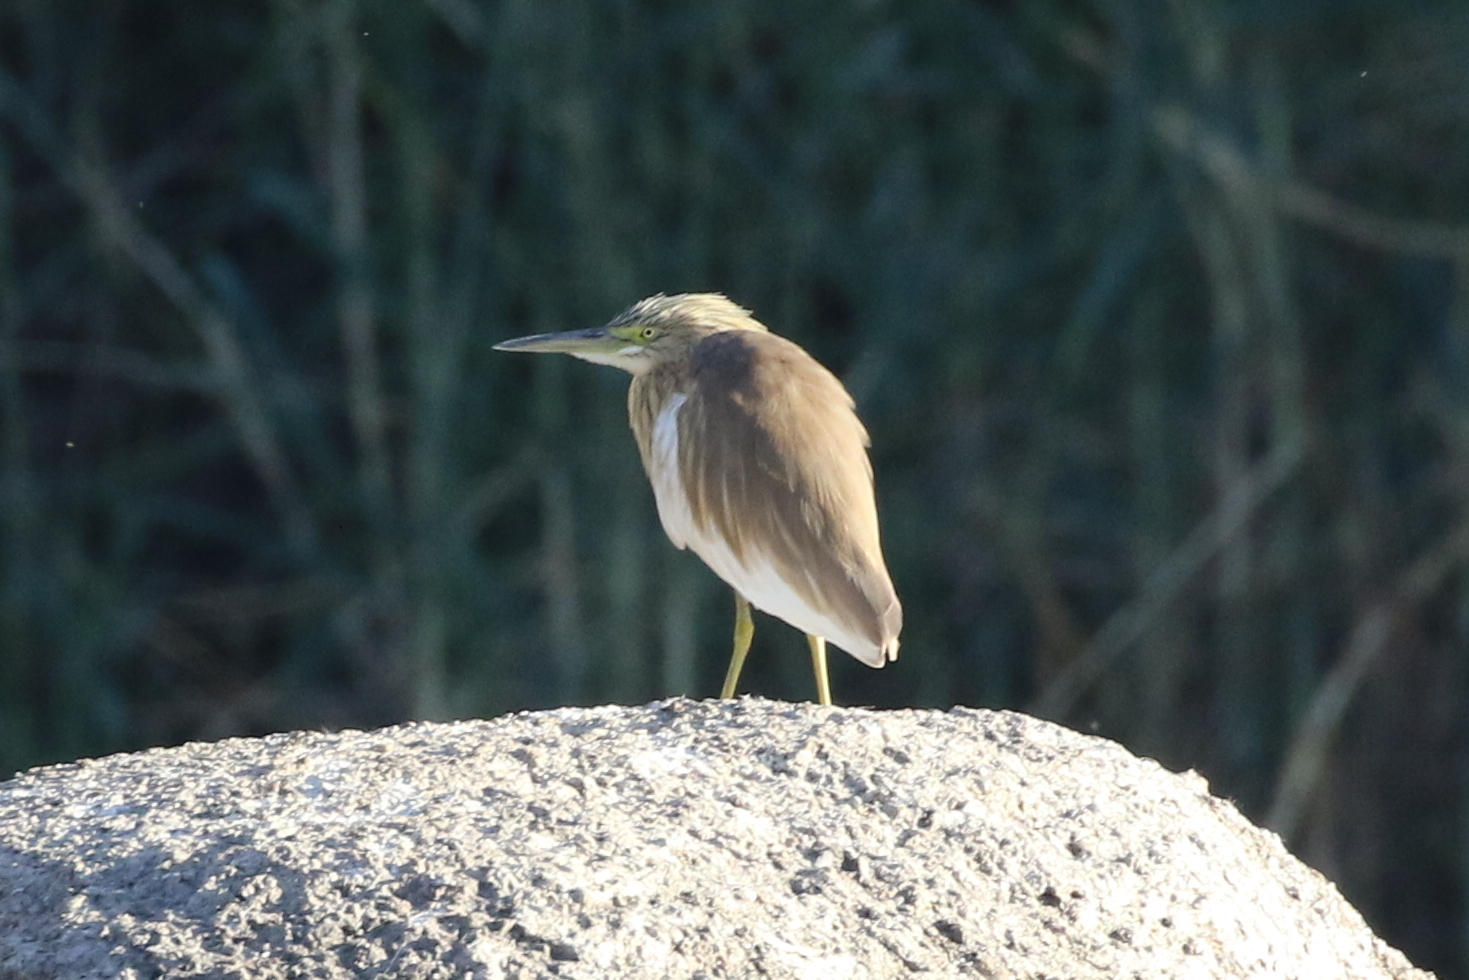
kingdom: Animalia
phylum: Chordata
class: Aves
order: Pelecaniformes
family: Ardeidae
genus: Ardeola
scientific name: Ardeola ralloides
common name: Squacco heron
